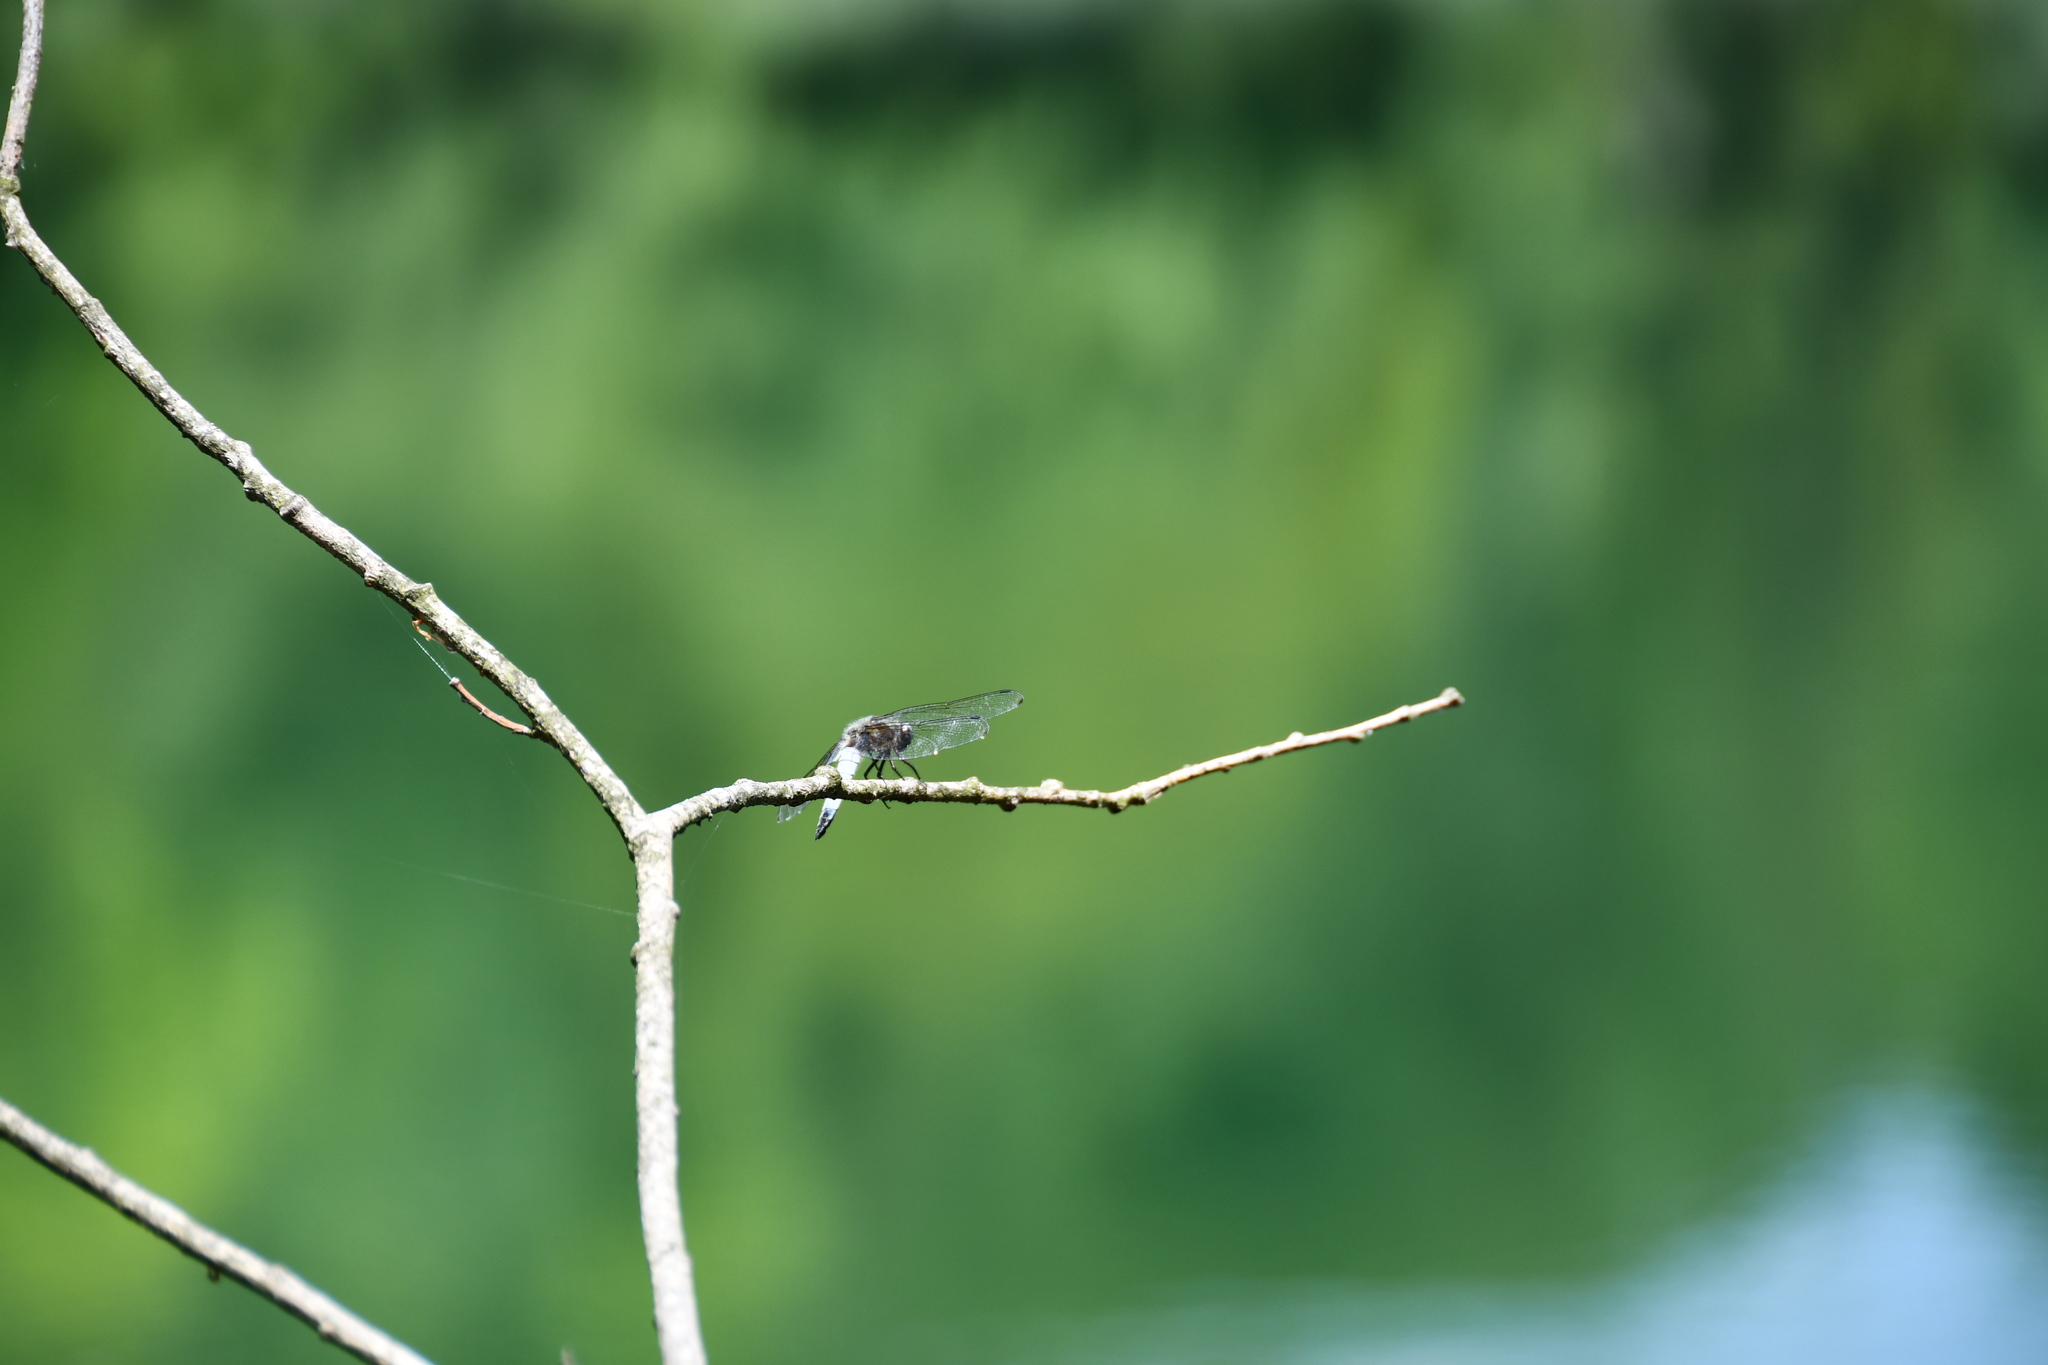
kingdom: Animalia
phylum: Arthropoda
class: Insecta
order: Odonata
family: Libellulidae
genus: Libellula
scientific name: Libellula fulva
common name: Blue chaser
